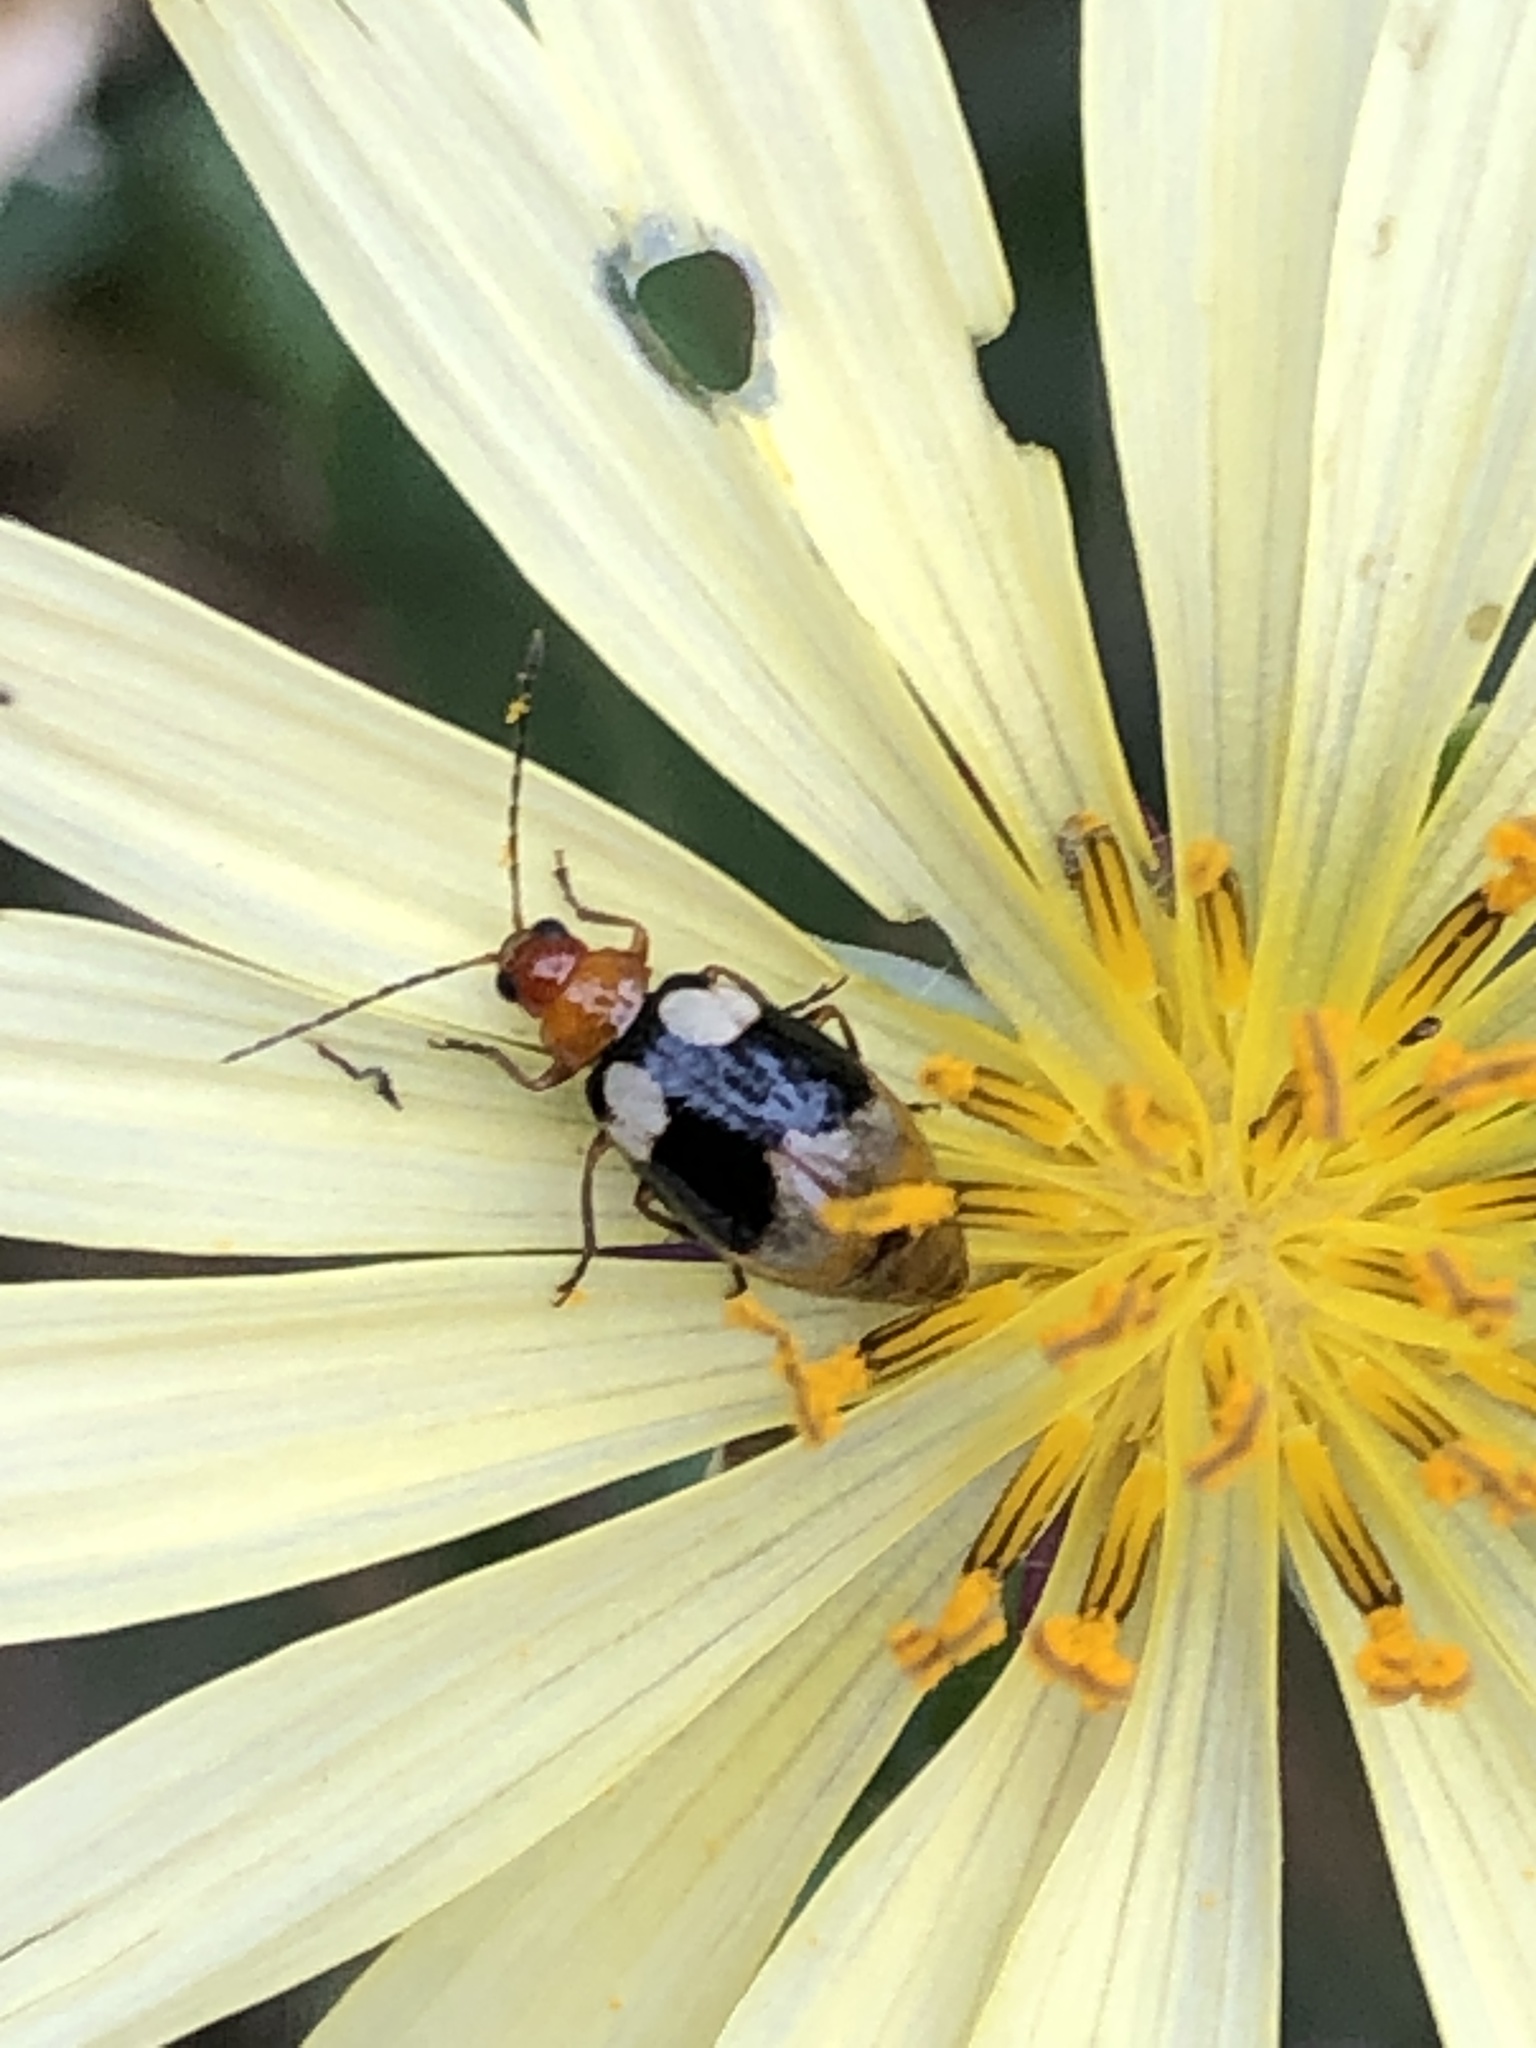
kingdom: Animalia
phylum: Arthropoda
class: Insecta
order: Coleoptera
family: Chrysomelidae
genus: Monolepta
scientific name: Monolepta quadriguttata
